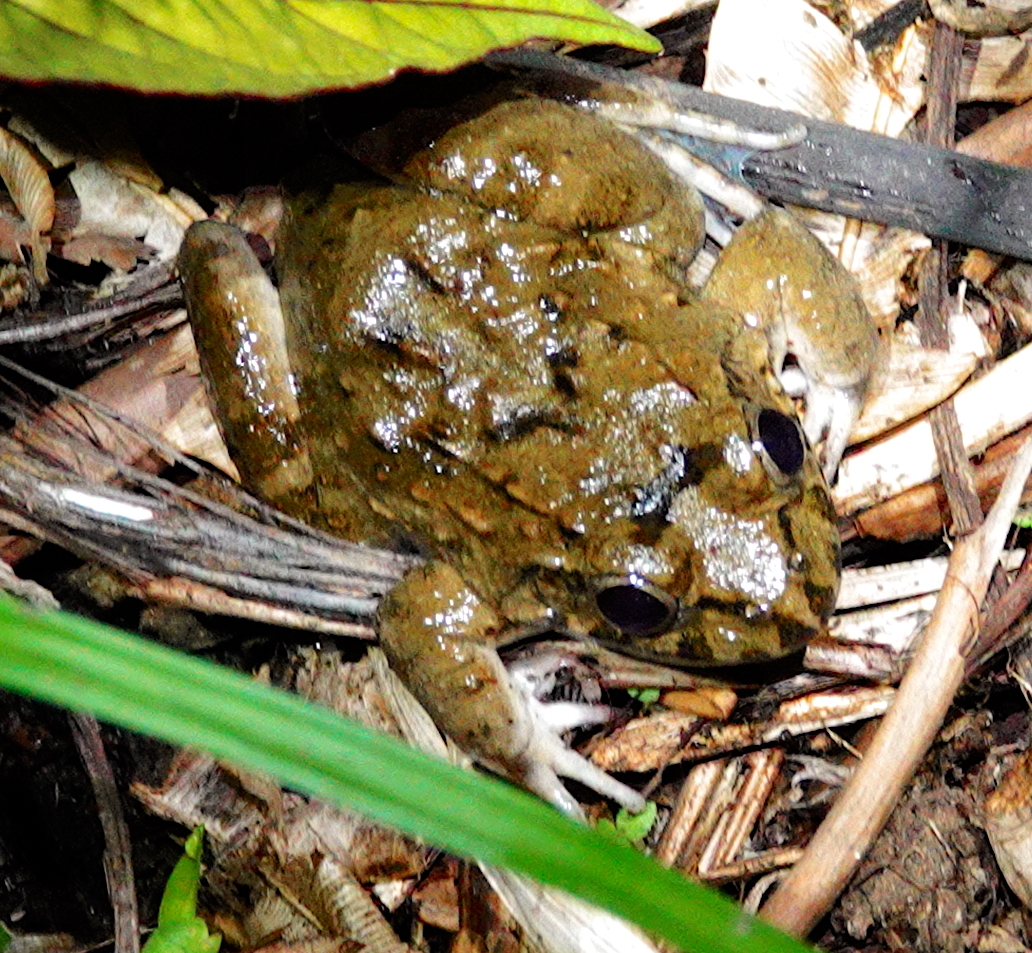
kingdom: Animalia
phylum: Chordata
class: Amphibia
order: Anura
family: Dicroglossidae
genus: Fejervarya
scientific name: Fejervarya limnocharis
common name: Asian grass frog/common pond frog/field frog/grass frog/indian rice frog
